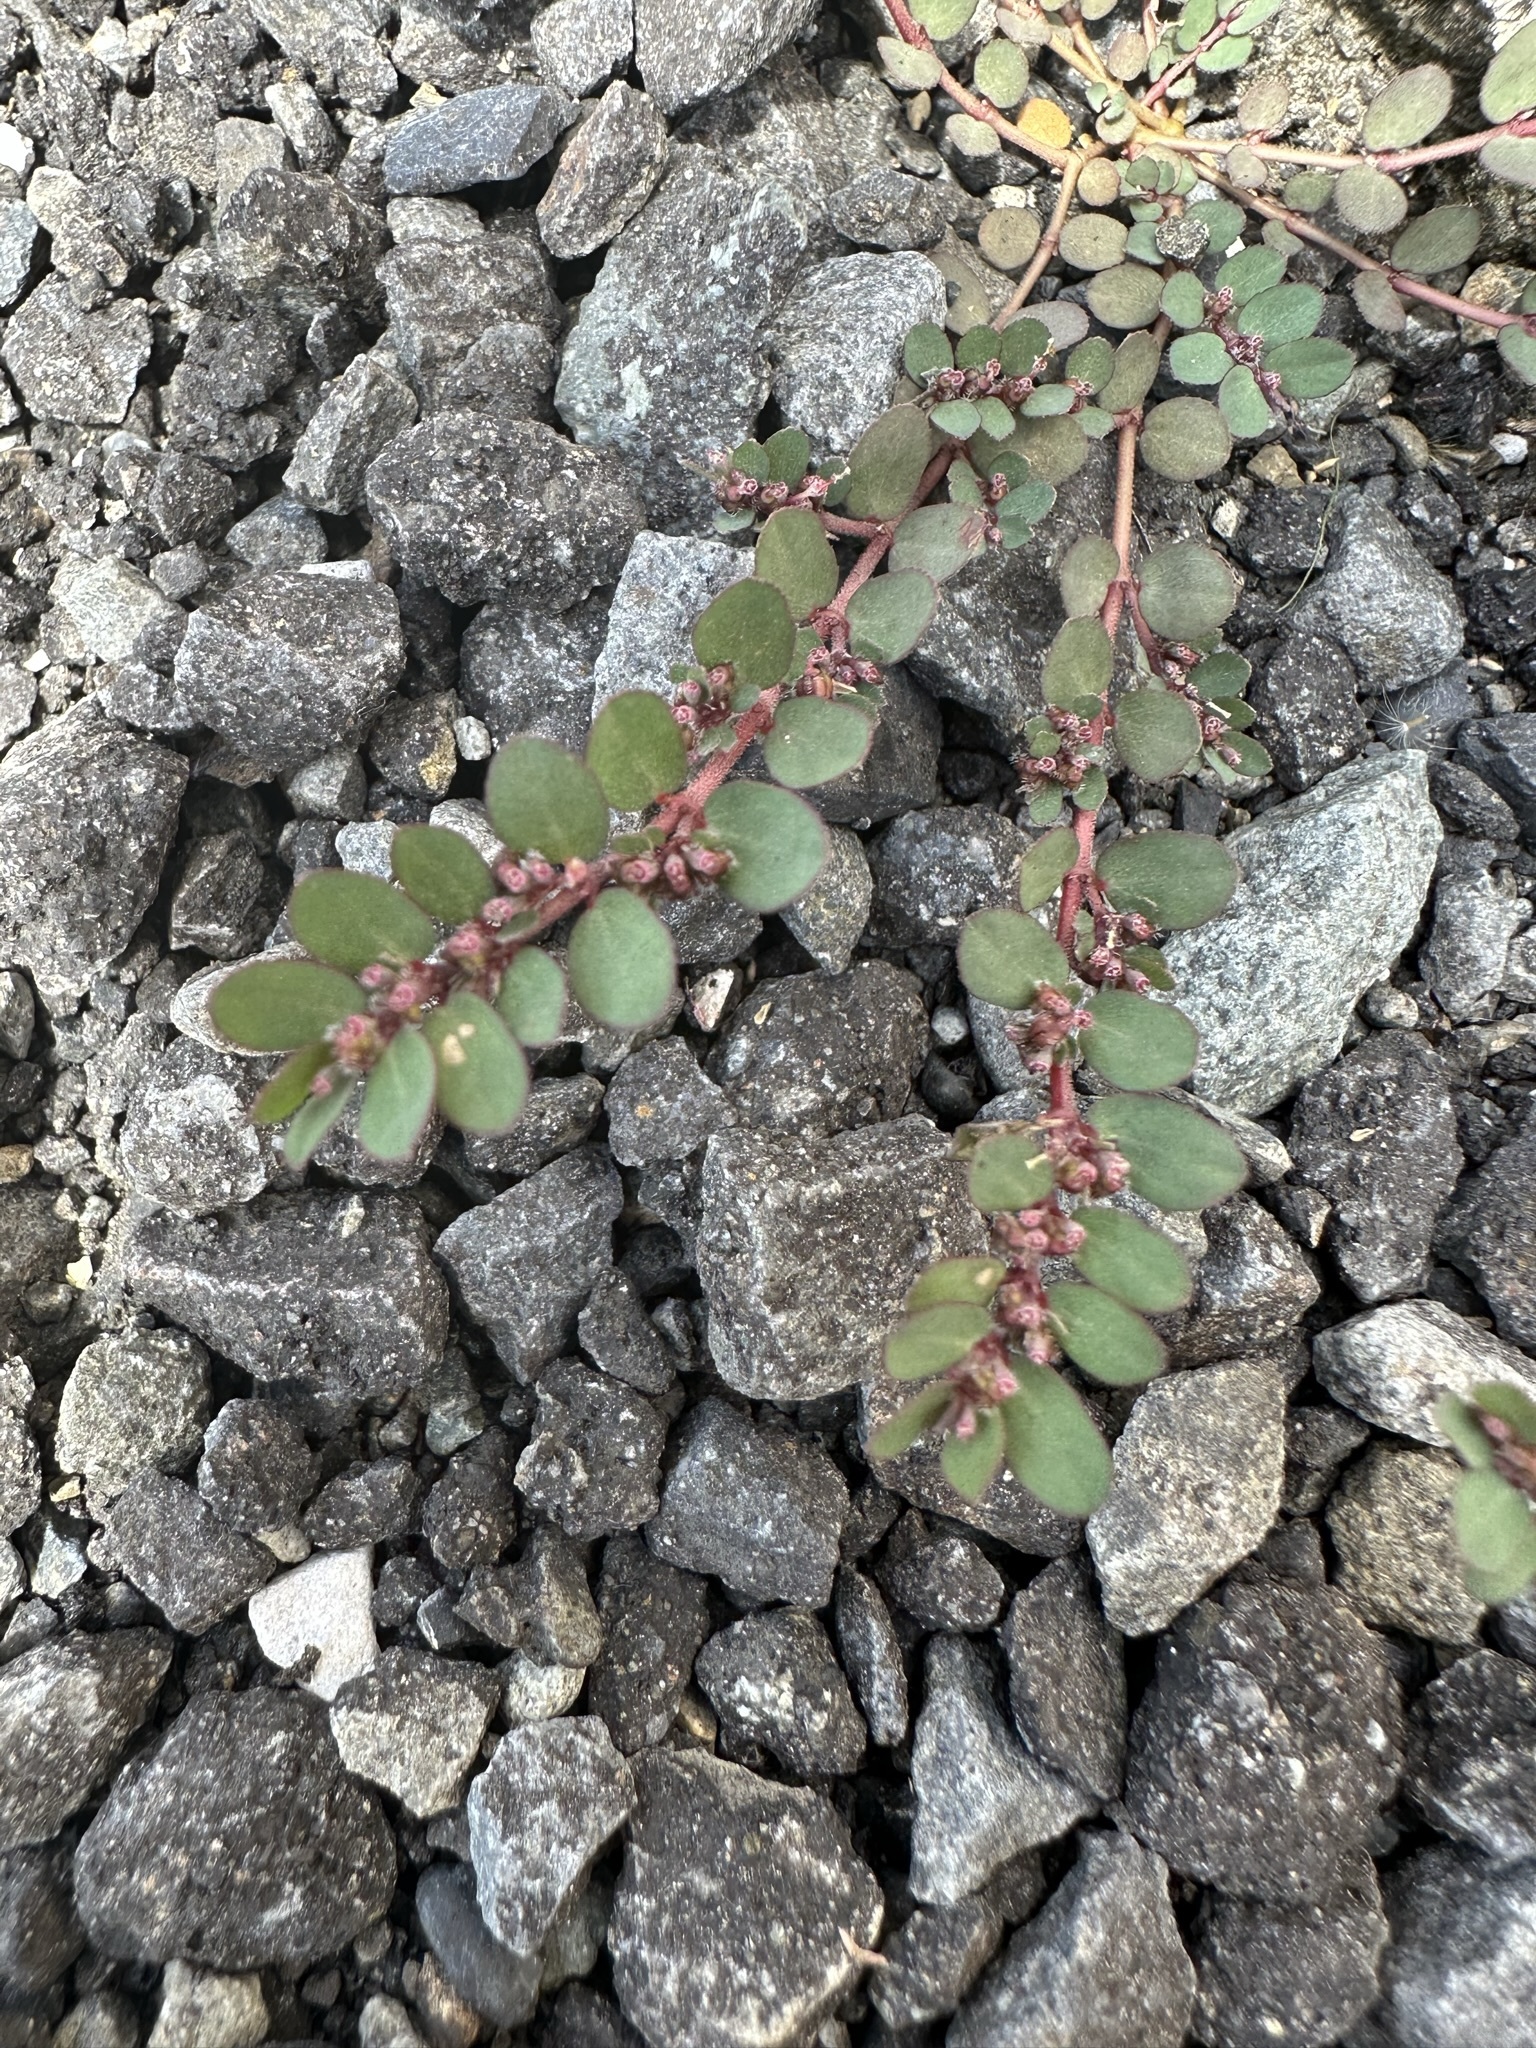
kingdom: Plantae
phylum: Tracheophyta
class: Magnoliopsida
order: Malpighiales
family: Euphorbiaceae
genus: Euphorbia
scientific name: Euphorbia prostrata
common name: Prostrate sandmat
